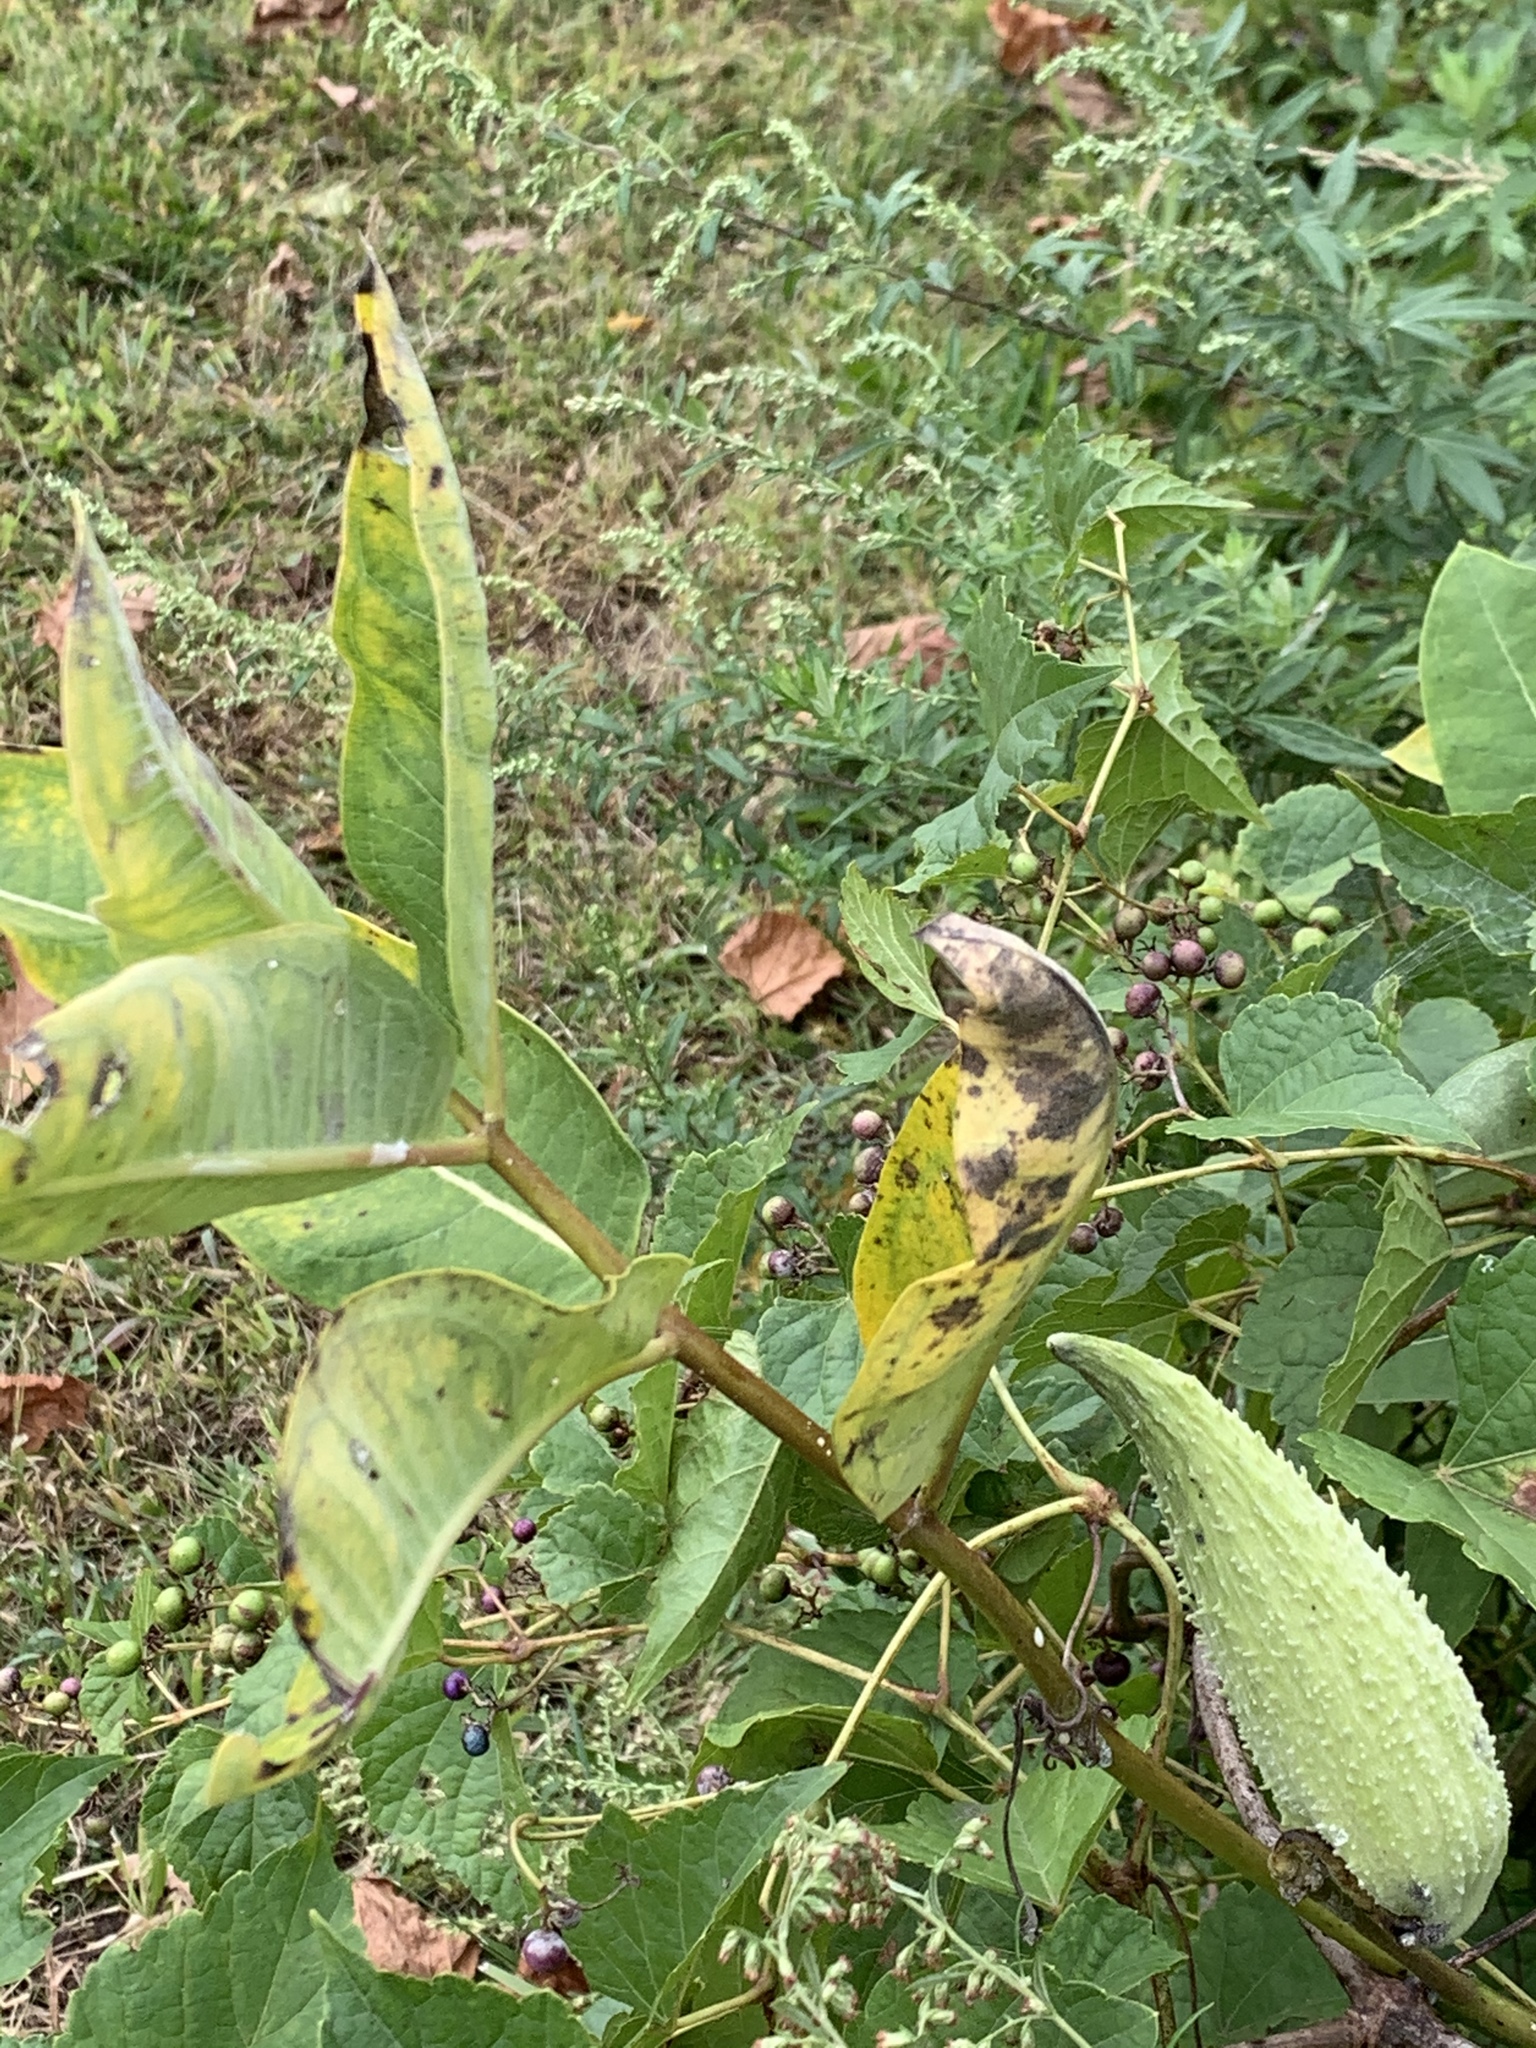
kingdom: Plantae
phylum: Tracheophyta
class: Magnoliopsida
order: Gentianales
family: Apocynaceae
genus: Asclepias
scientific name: Asclepias syriaca
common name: Common milkweed
